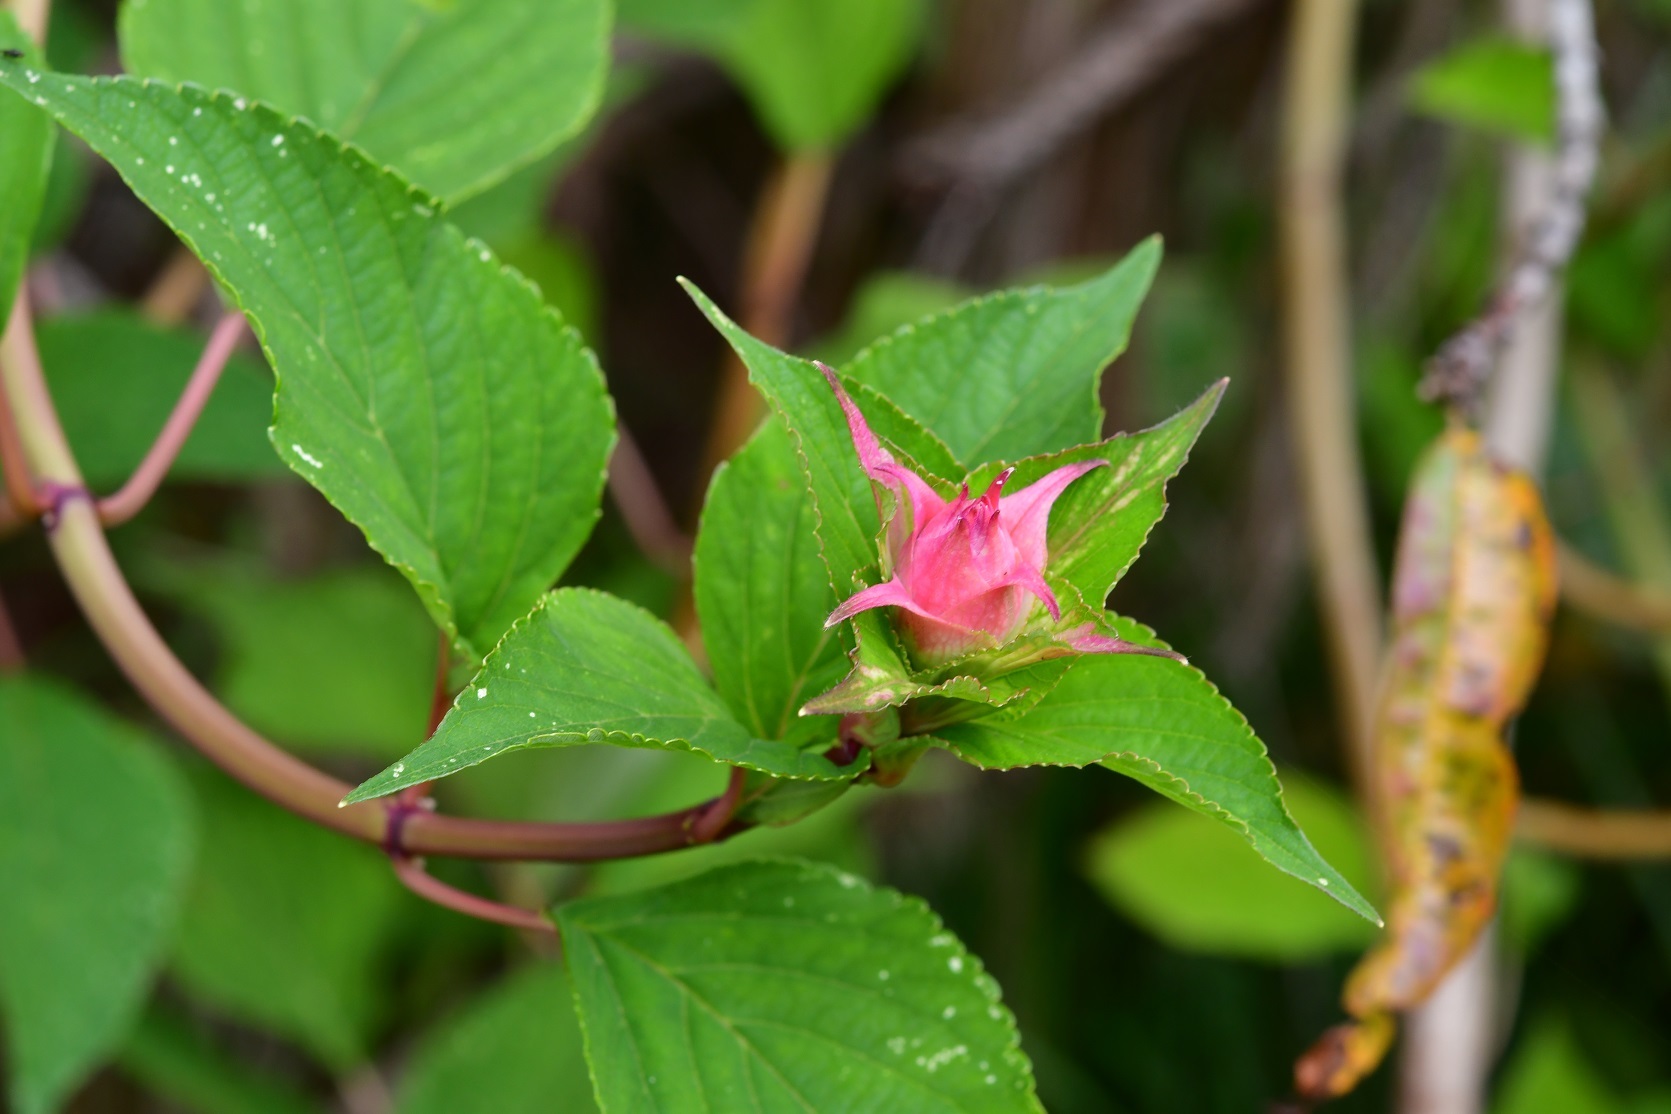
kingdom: Plantae
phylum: Tracheophyta
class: Magnoliopsida
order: Lamiales
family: Lamiaceae
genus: Salvia
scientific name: Salvia wagneriana
